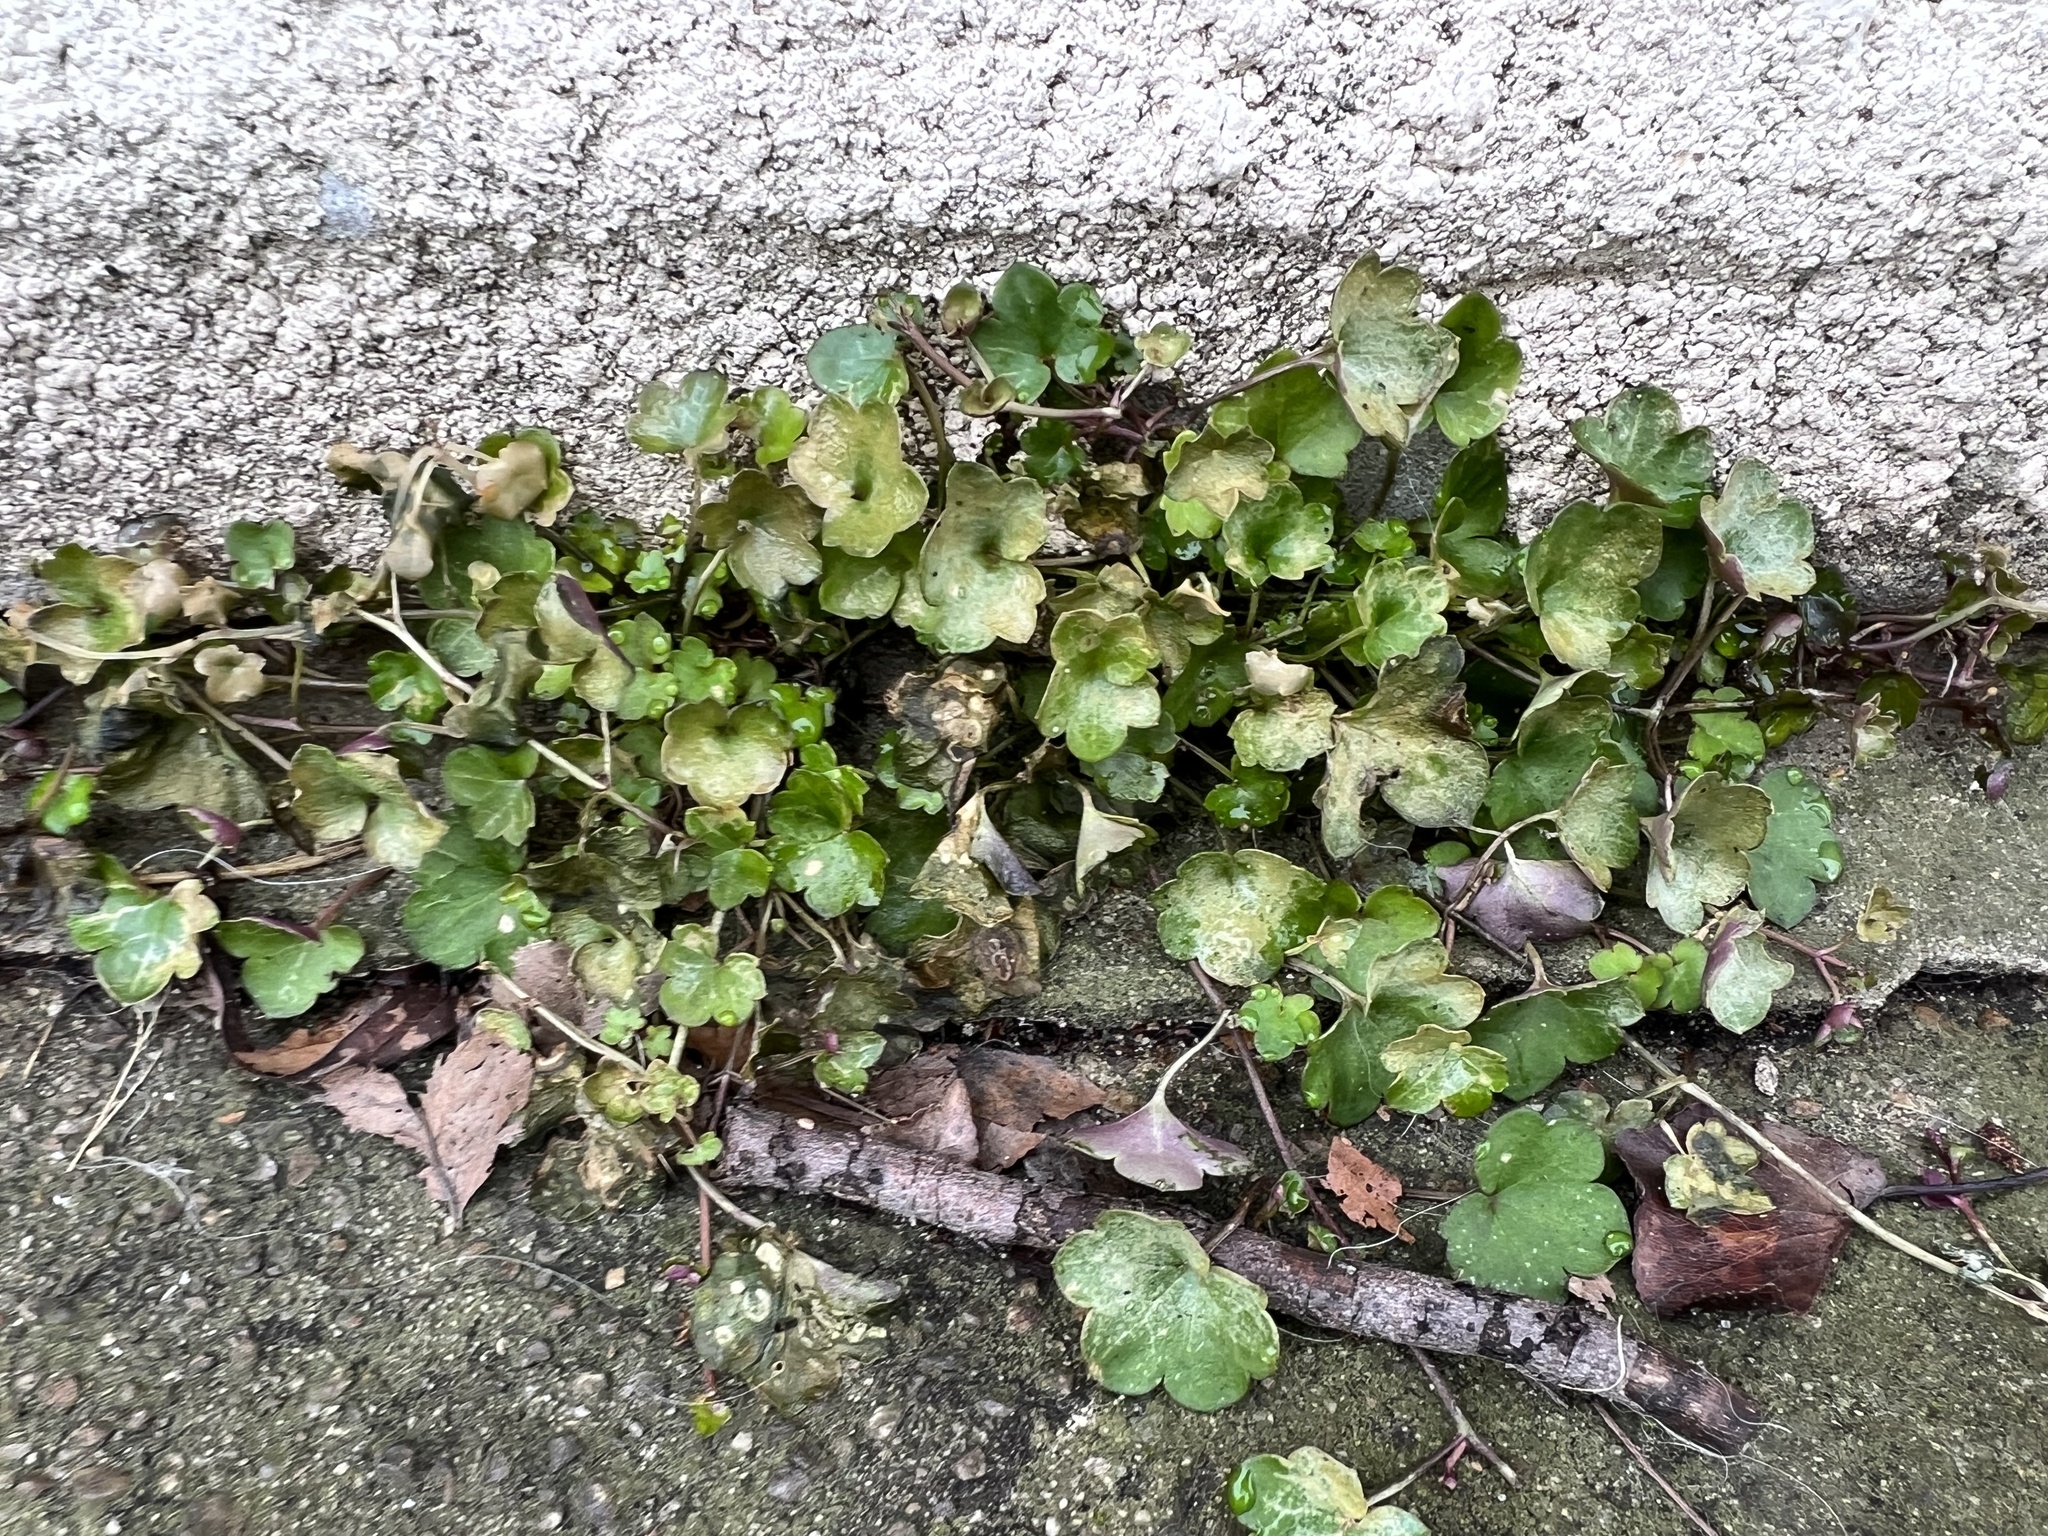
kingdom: Plantae
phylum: Tracheophyta
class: Magnoliopsida
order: Lamiales
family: Plantaginaceae
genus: Cymbalaria
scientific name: Cymbalaria muralis
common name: Ivy-leaved toadflax
